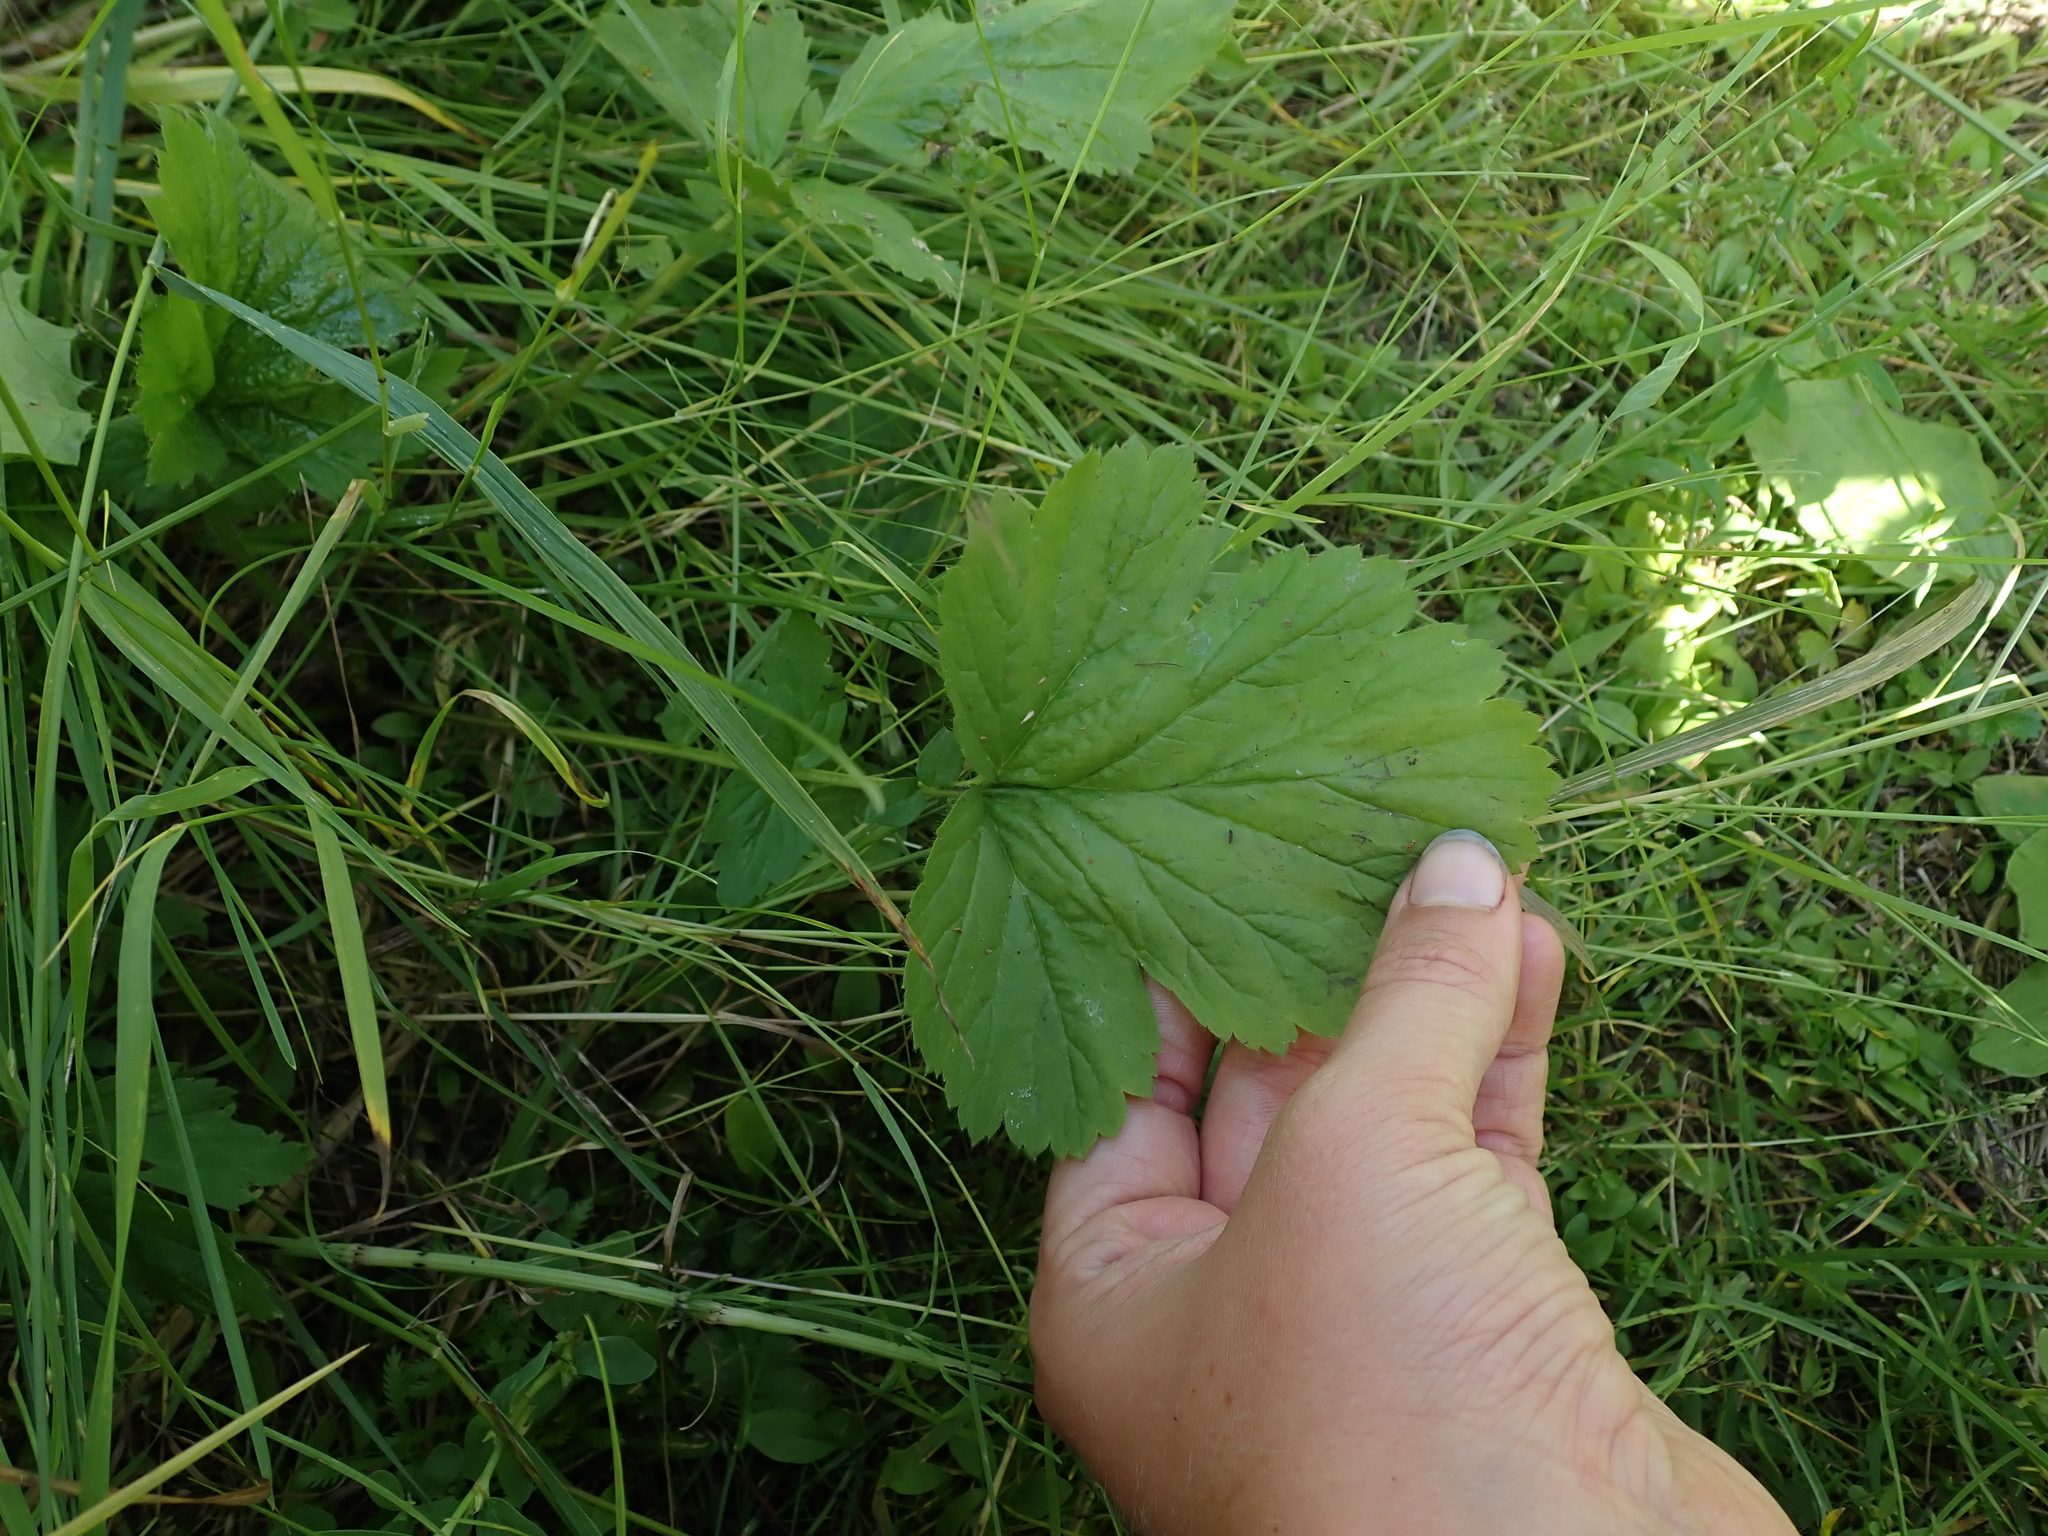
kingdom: Plantae
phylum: Tracheophyta
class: Magnoliopsida
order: Rosales
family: Rosaceae
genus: Geum
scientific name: Geum macrophyllum
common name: Large-leaved avens
